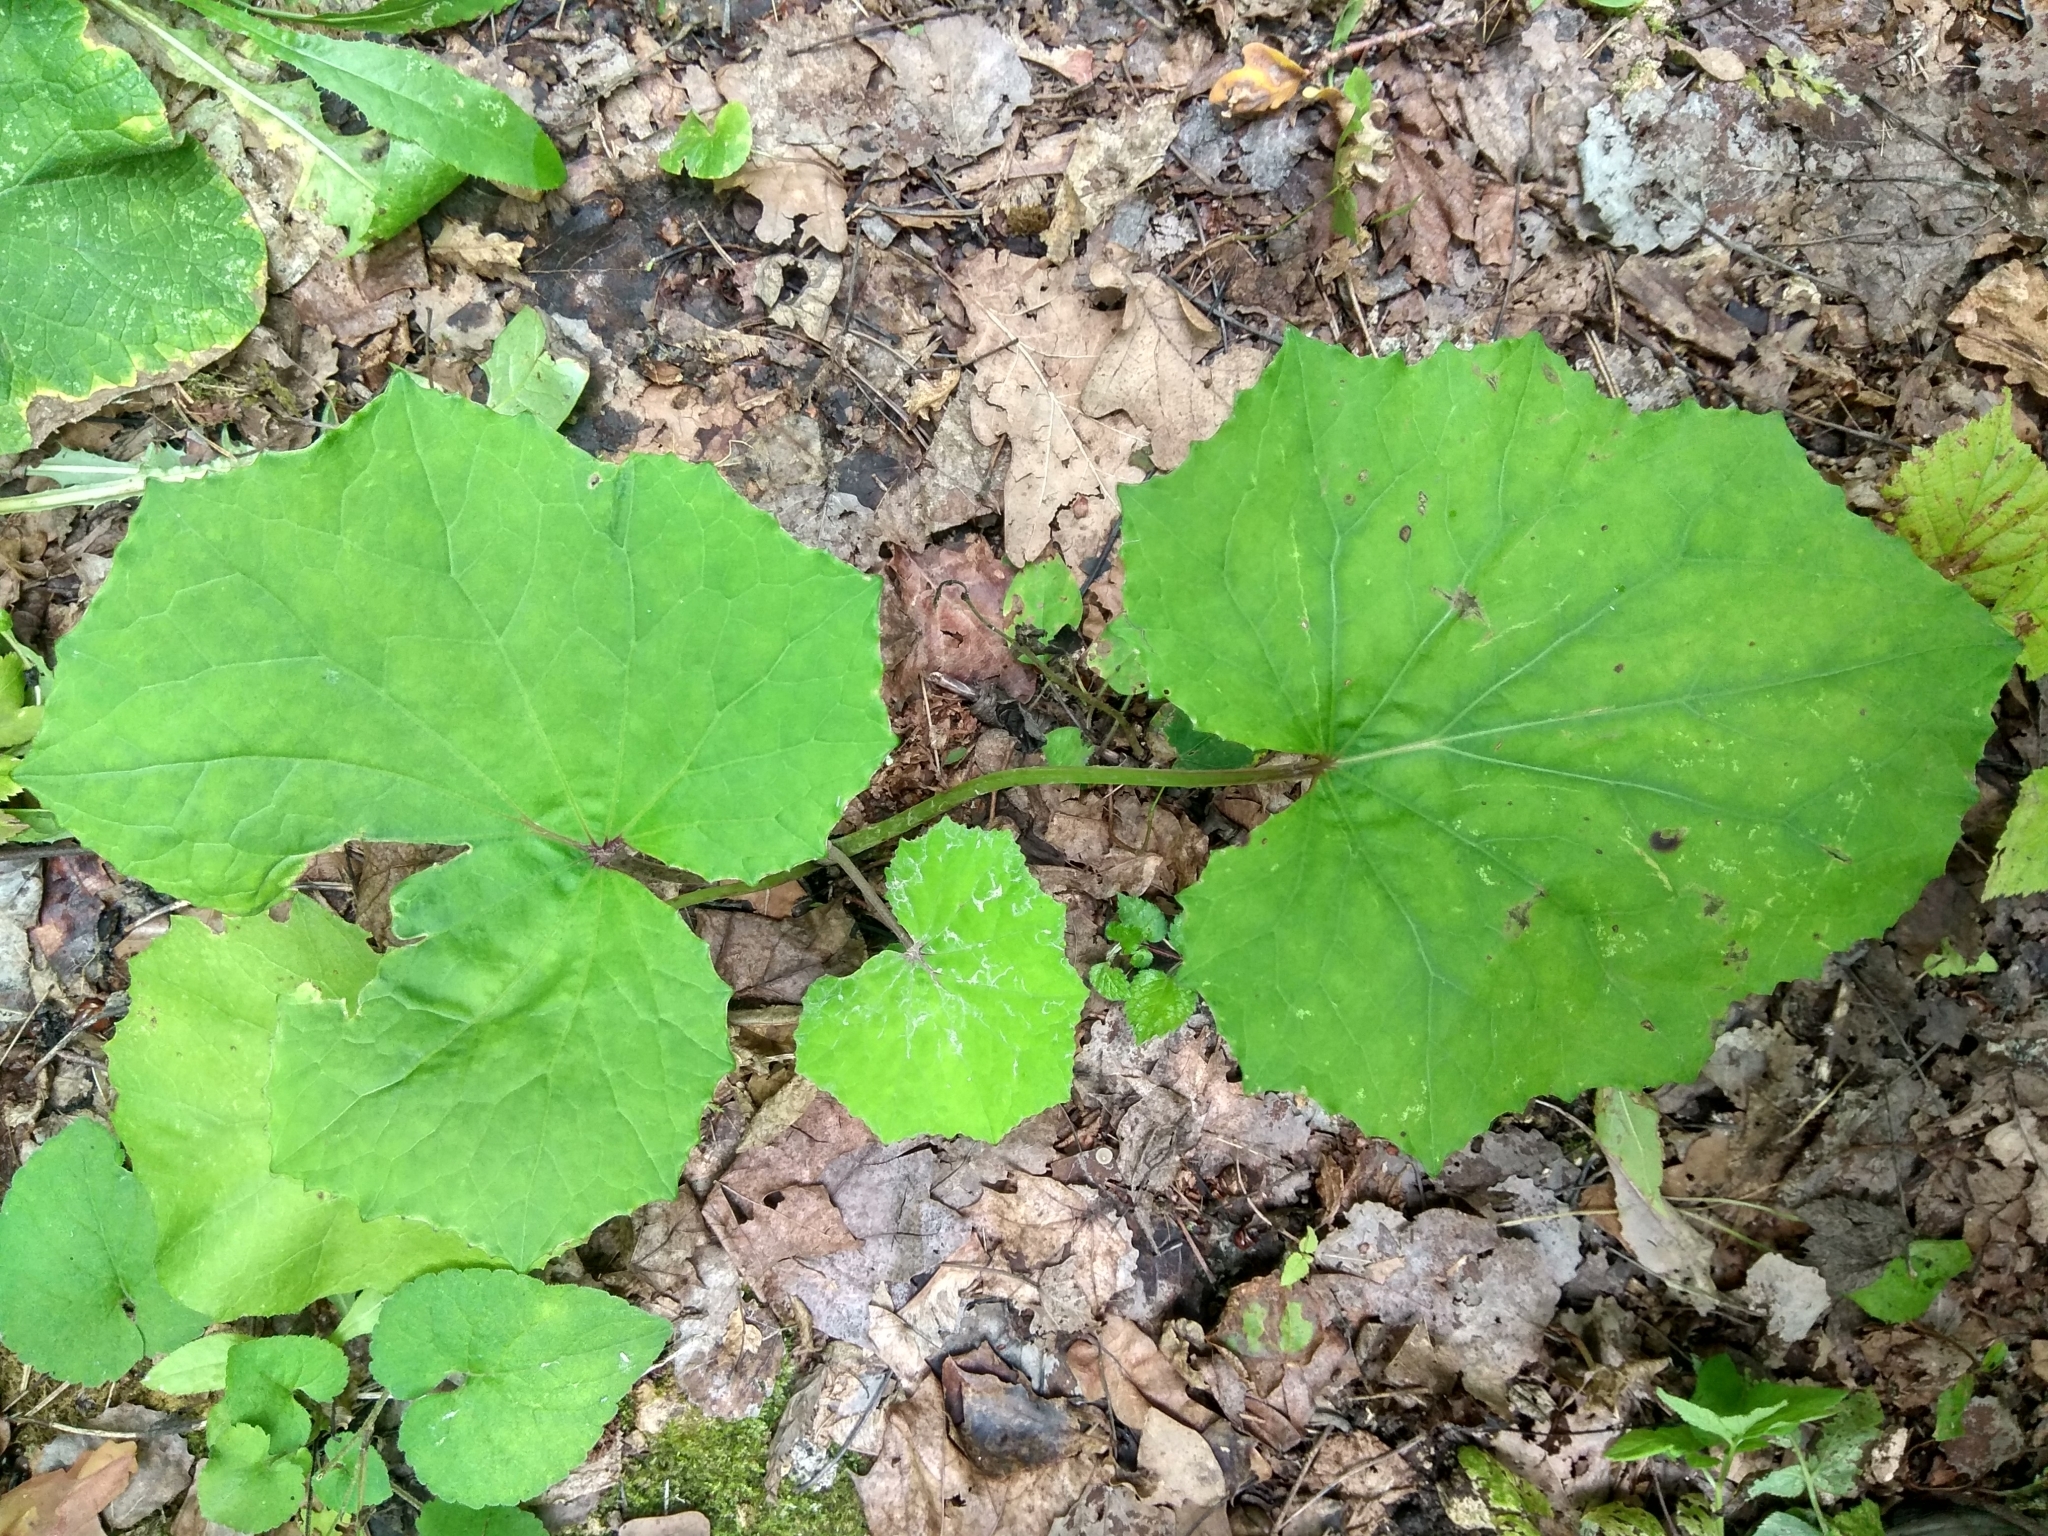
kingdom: Plantae
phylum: Tracheophyta
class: Magnoliopsida
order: Asterales
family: Asteraceae
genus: Tussilago
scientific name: Tussilago farfara
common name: Coltsfoot
